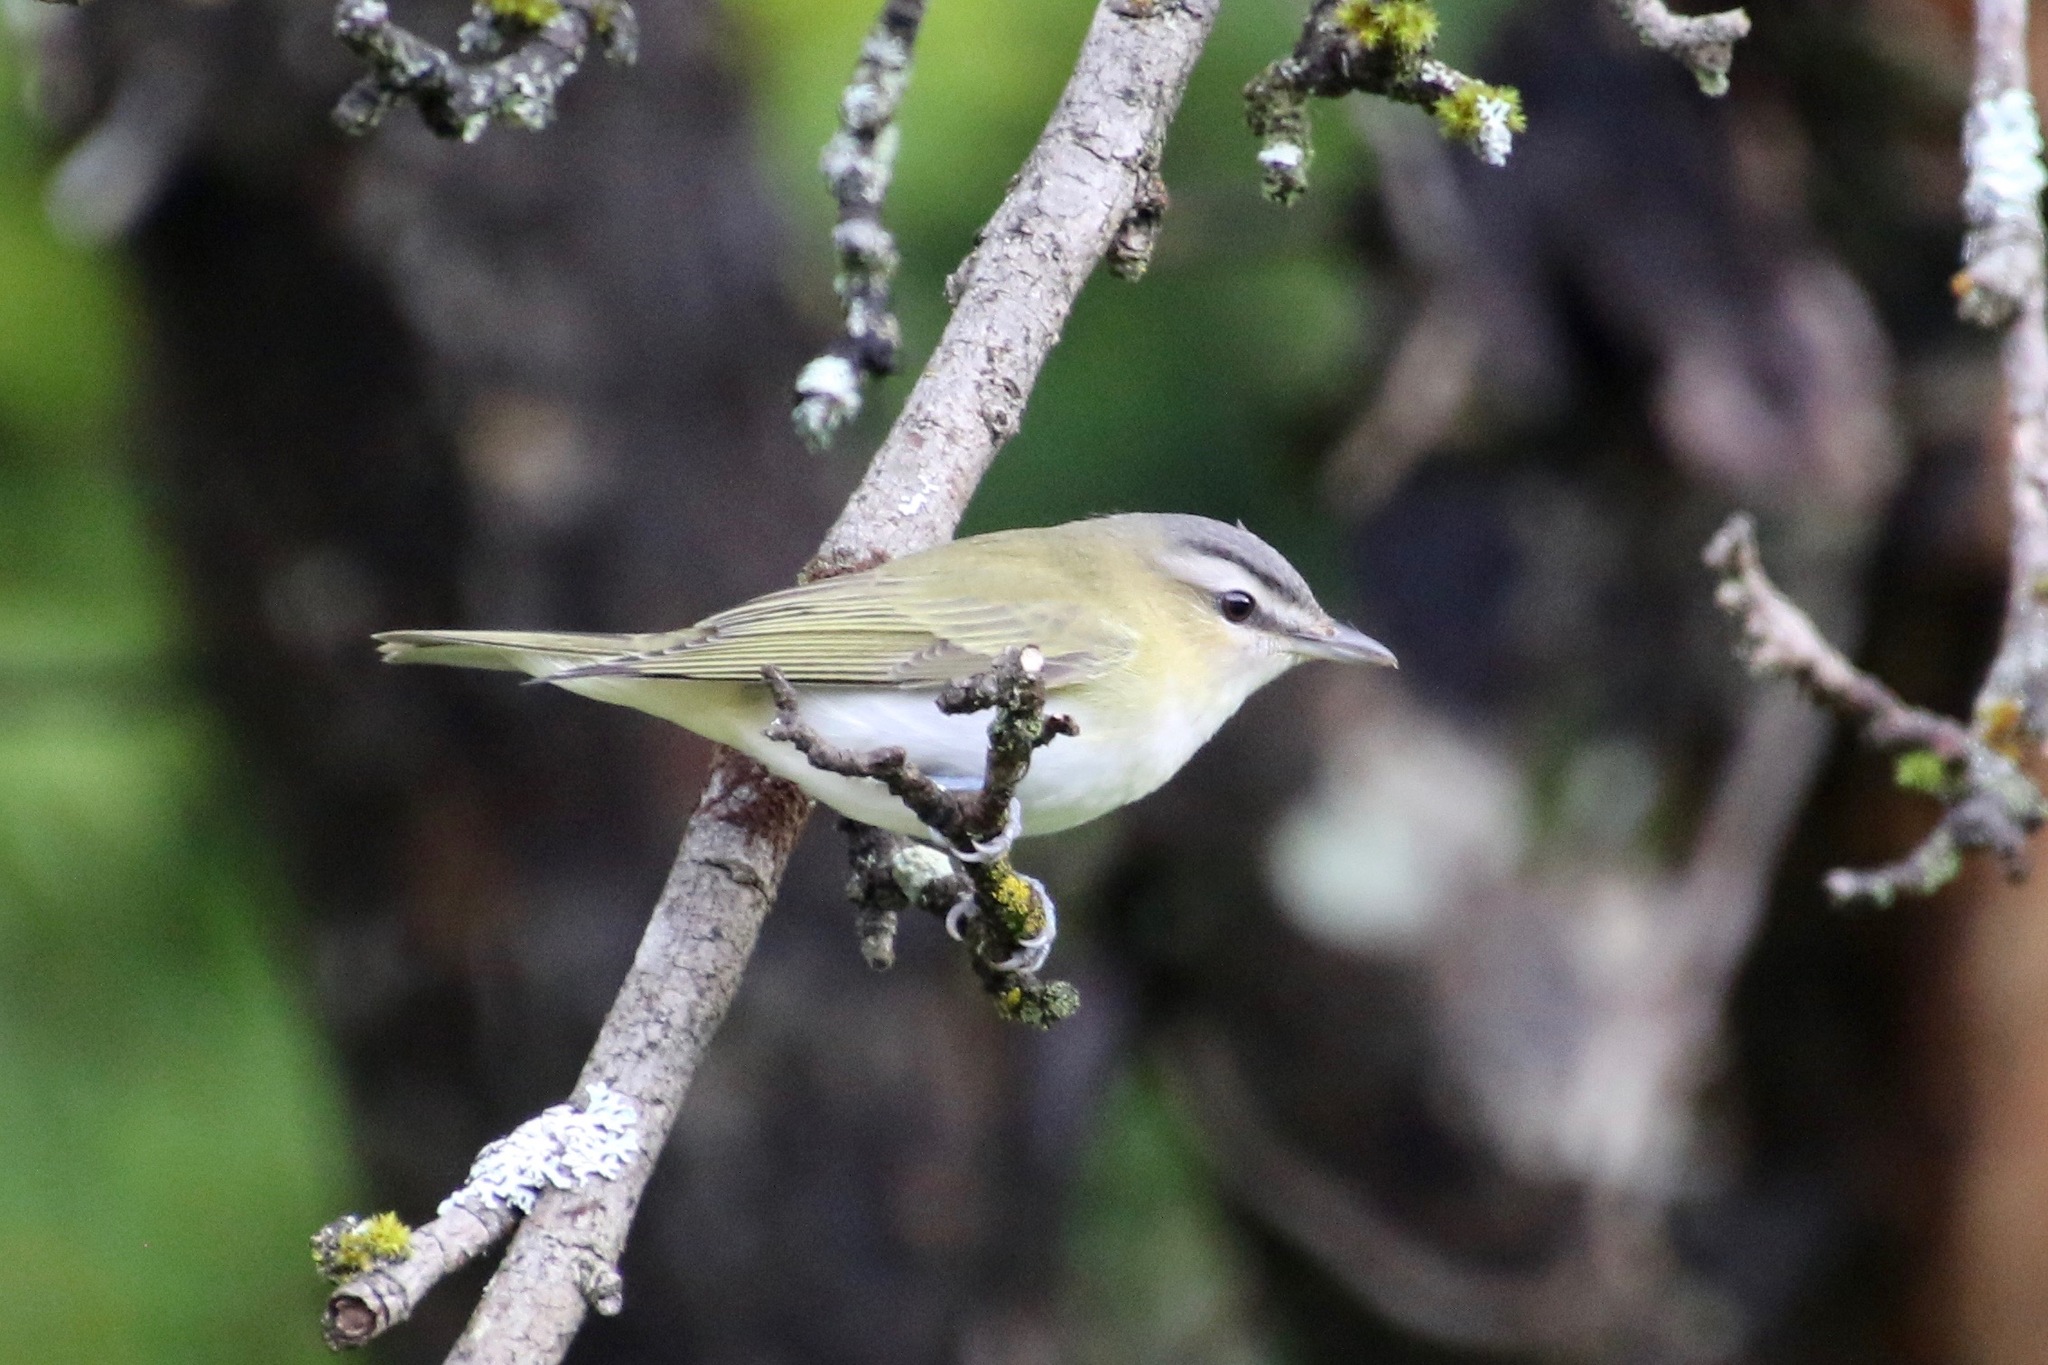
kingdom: Animalia
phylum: Chordata
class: Aves
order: Passeriformes
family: Vireonidae
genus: Vireo
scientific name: Vireo olivaceus
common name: Red-eyed vireo
